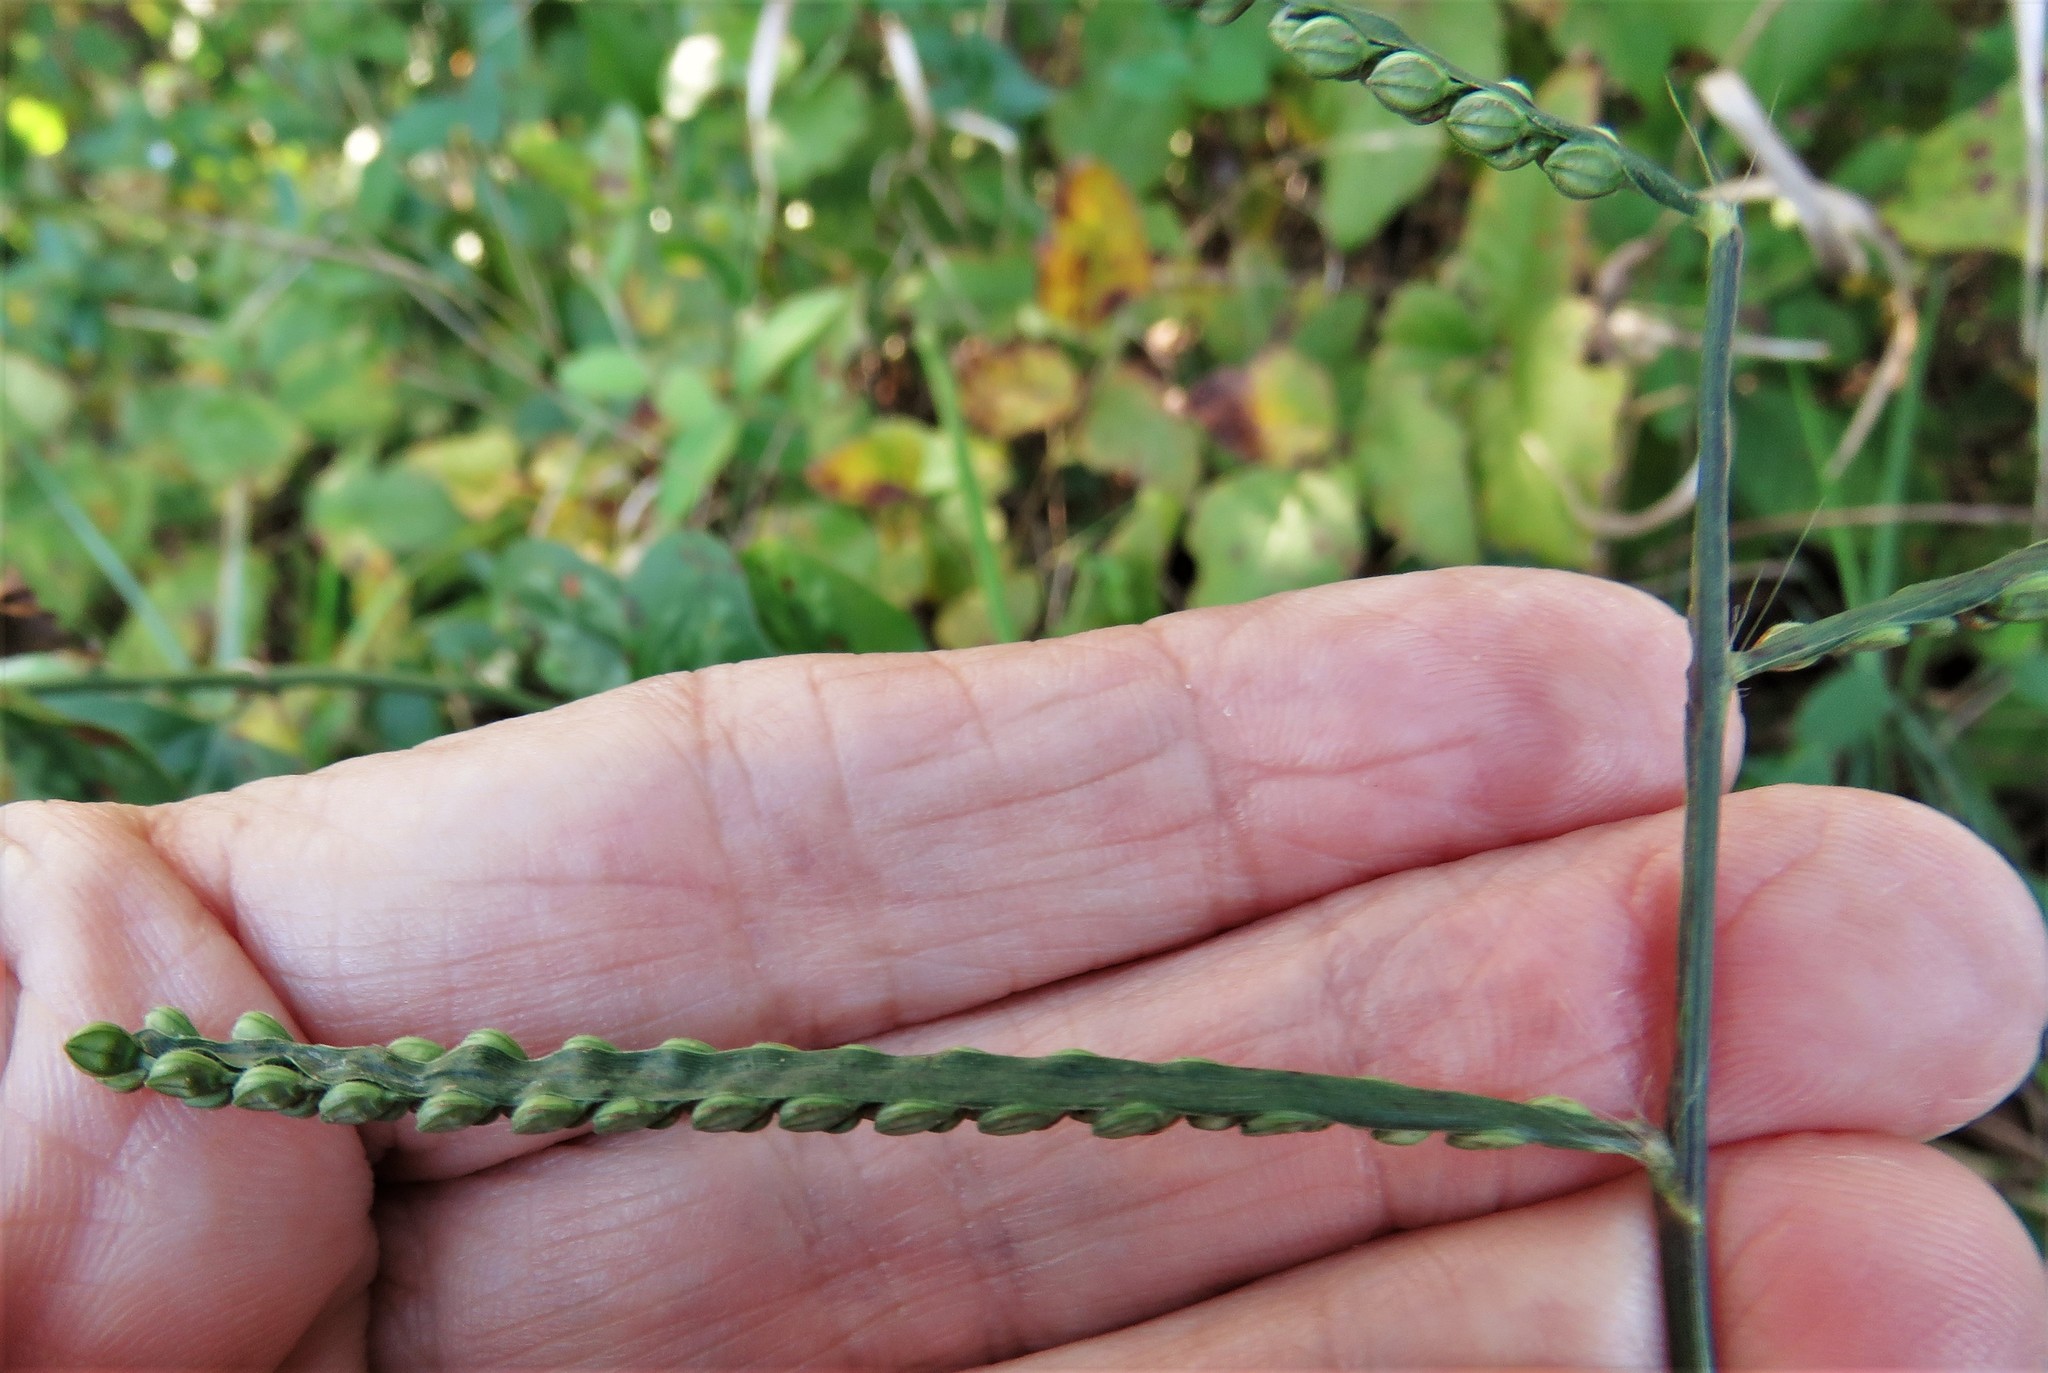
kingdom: Plantae
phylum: Tracheophyta
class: Liliopsida
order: Poales
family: Poaceae
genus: Paspalum
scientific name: Paspalum pubiflorum
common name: Hairy-seed paspalum
